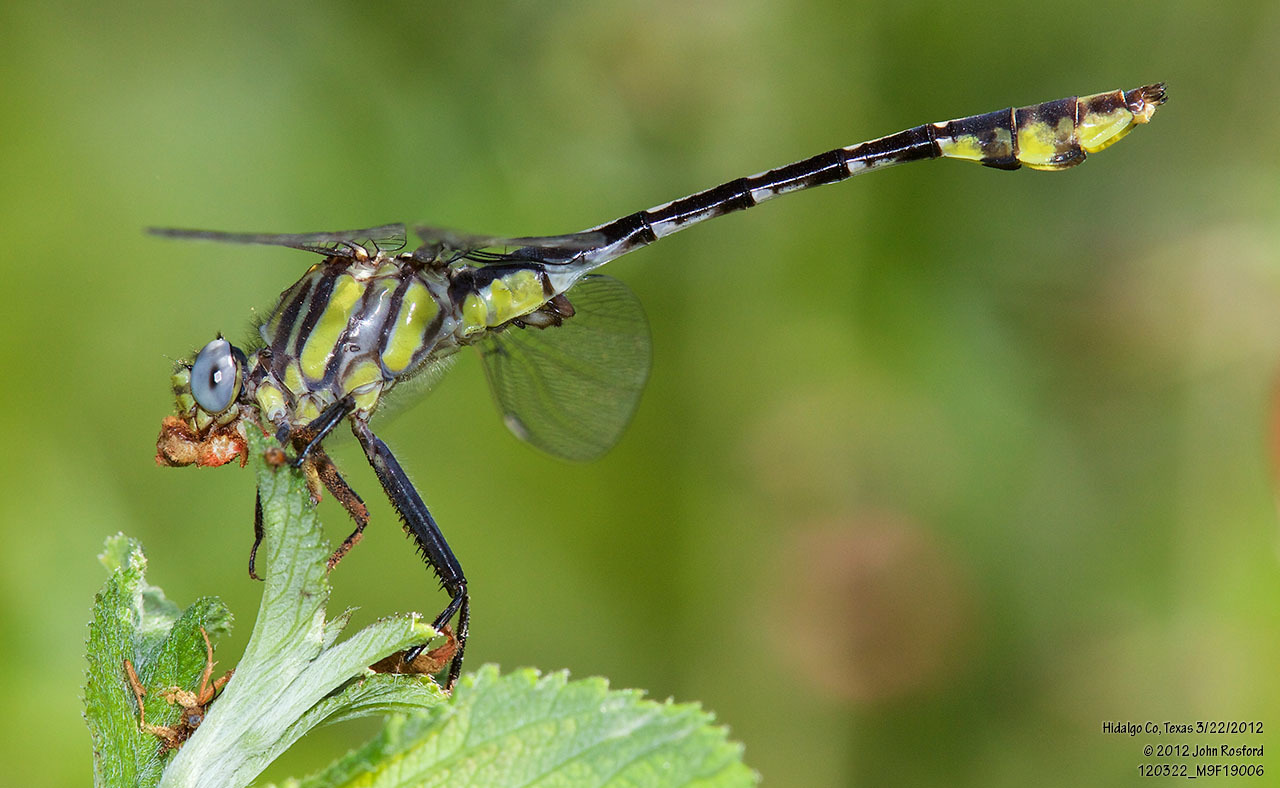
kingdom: Animalia
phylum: Arthropoda
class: Insecta
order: Odonata
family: Gomphidae
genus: Gomphurus
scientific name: Gomphurus gonzalezi
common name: Tamaulipan clubtail
